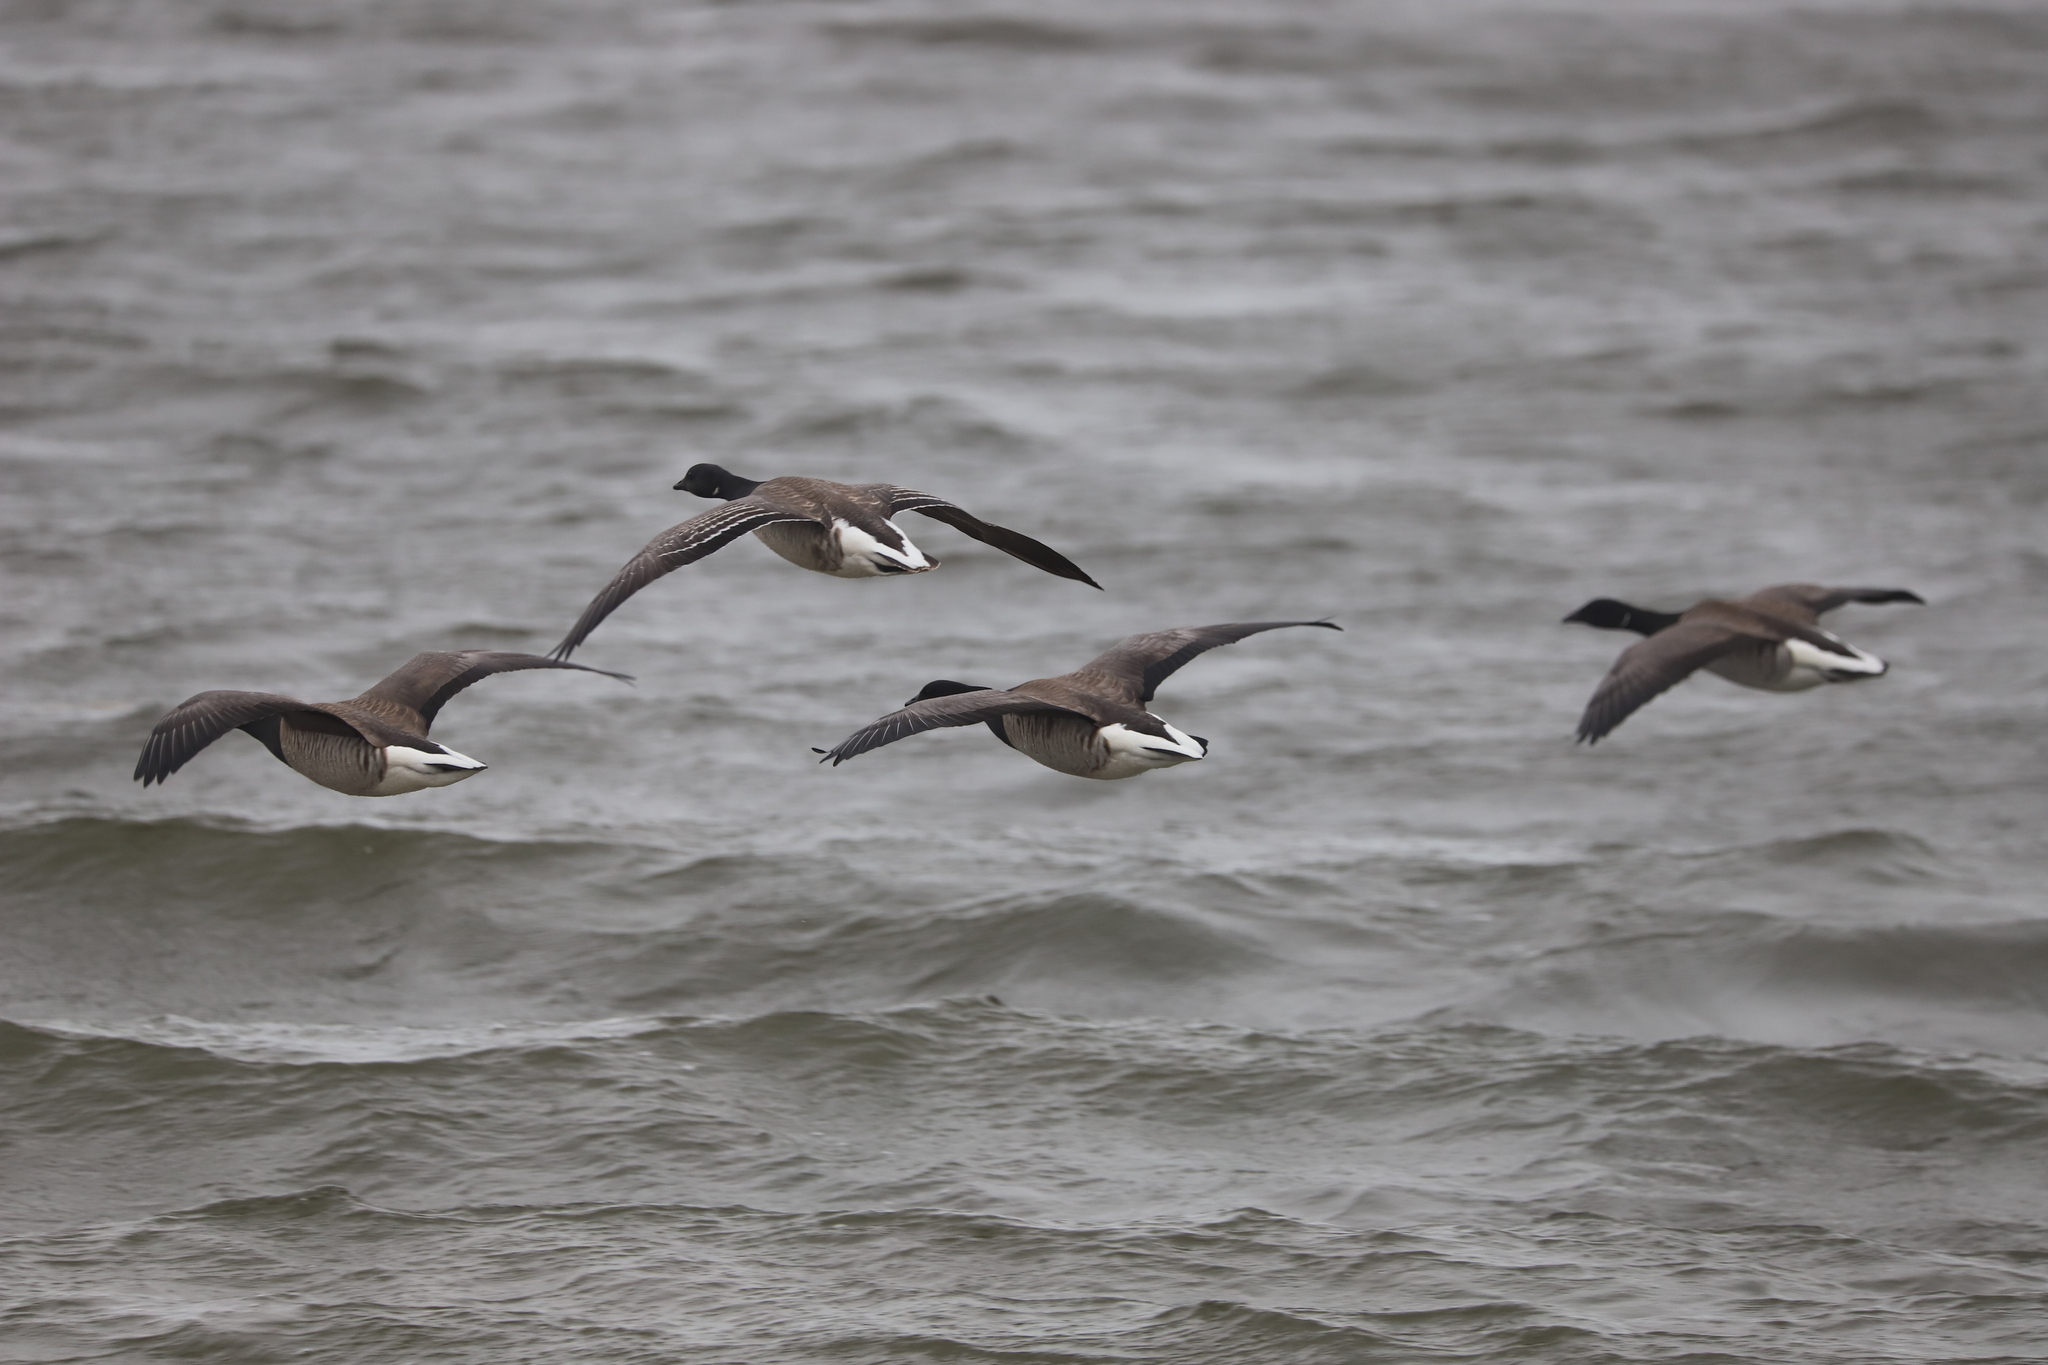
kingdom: Animalia
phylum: Chordata
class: Aves
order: Anseriformes
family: Anatidae
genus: Branta
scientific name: Branta bernicla
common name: Brant goose
